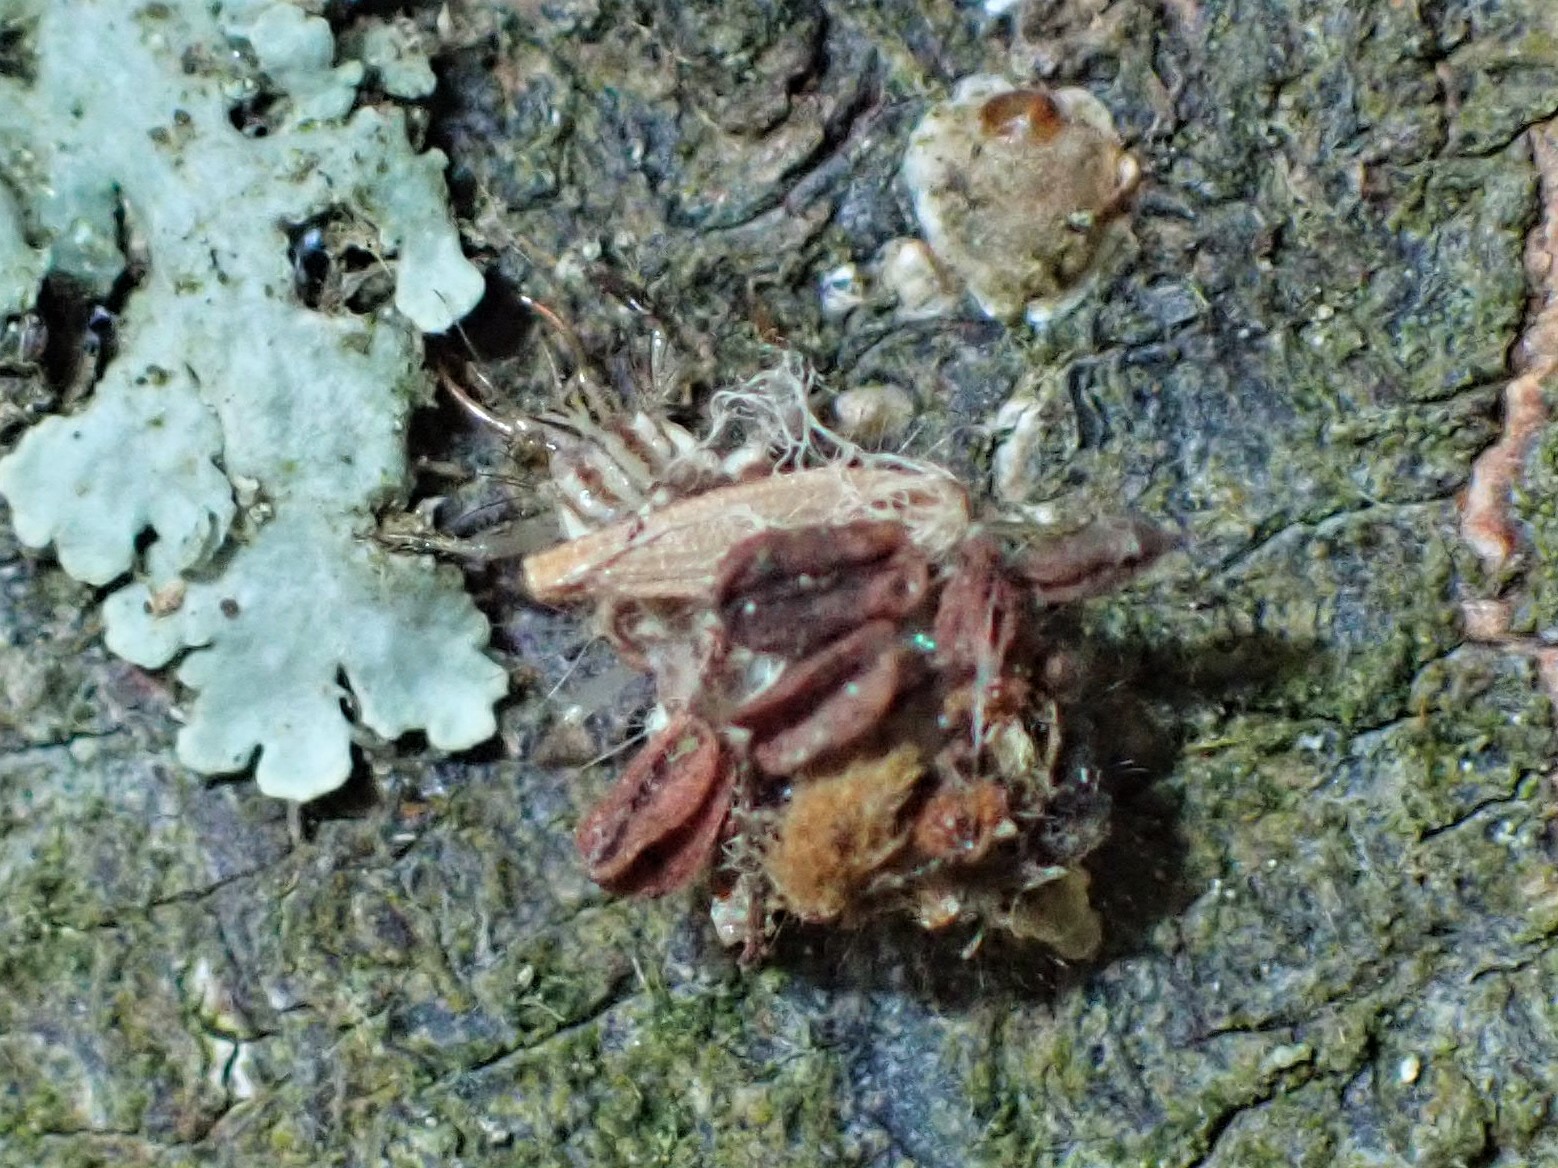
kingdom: Animalia
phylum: Arthropoda
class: Insecta
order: Neuroptera
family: Chrysopidae
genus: Mallada
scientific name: Mallada basalis
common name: Green lacewing
